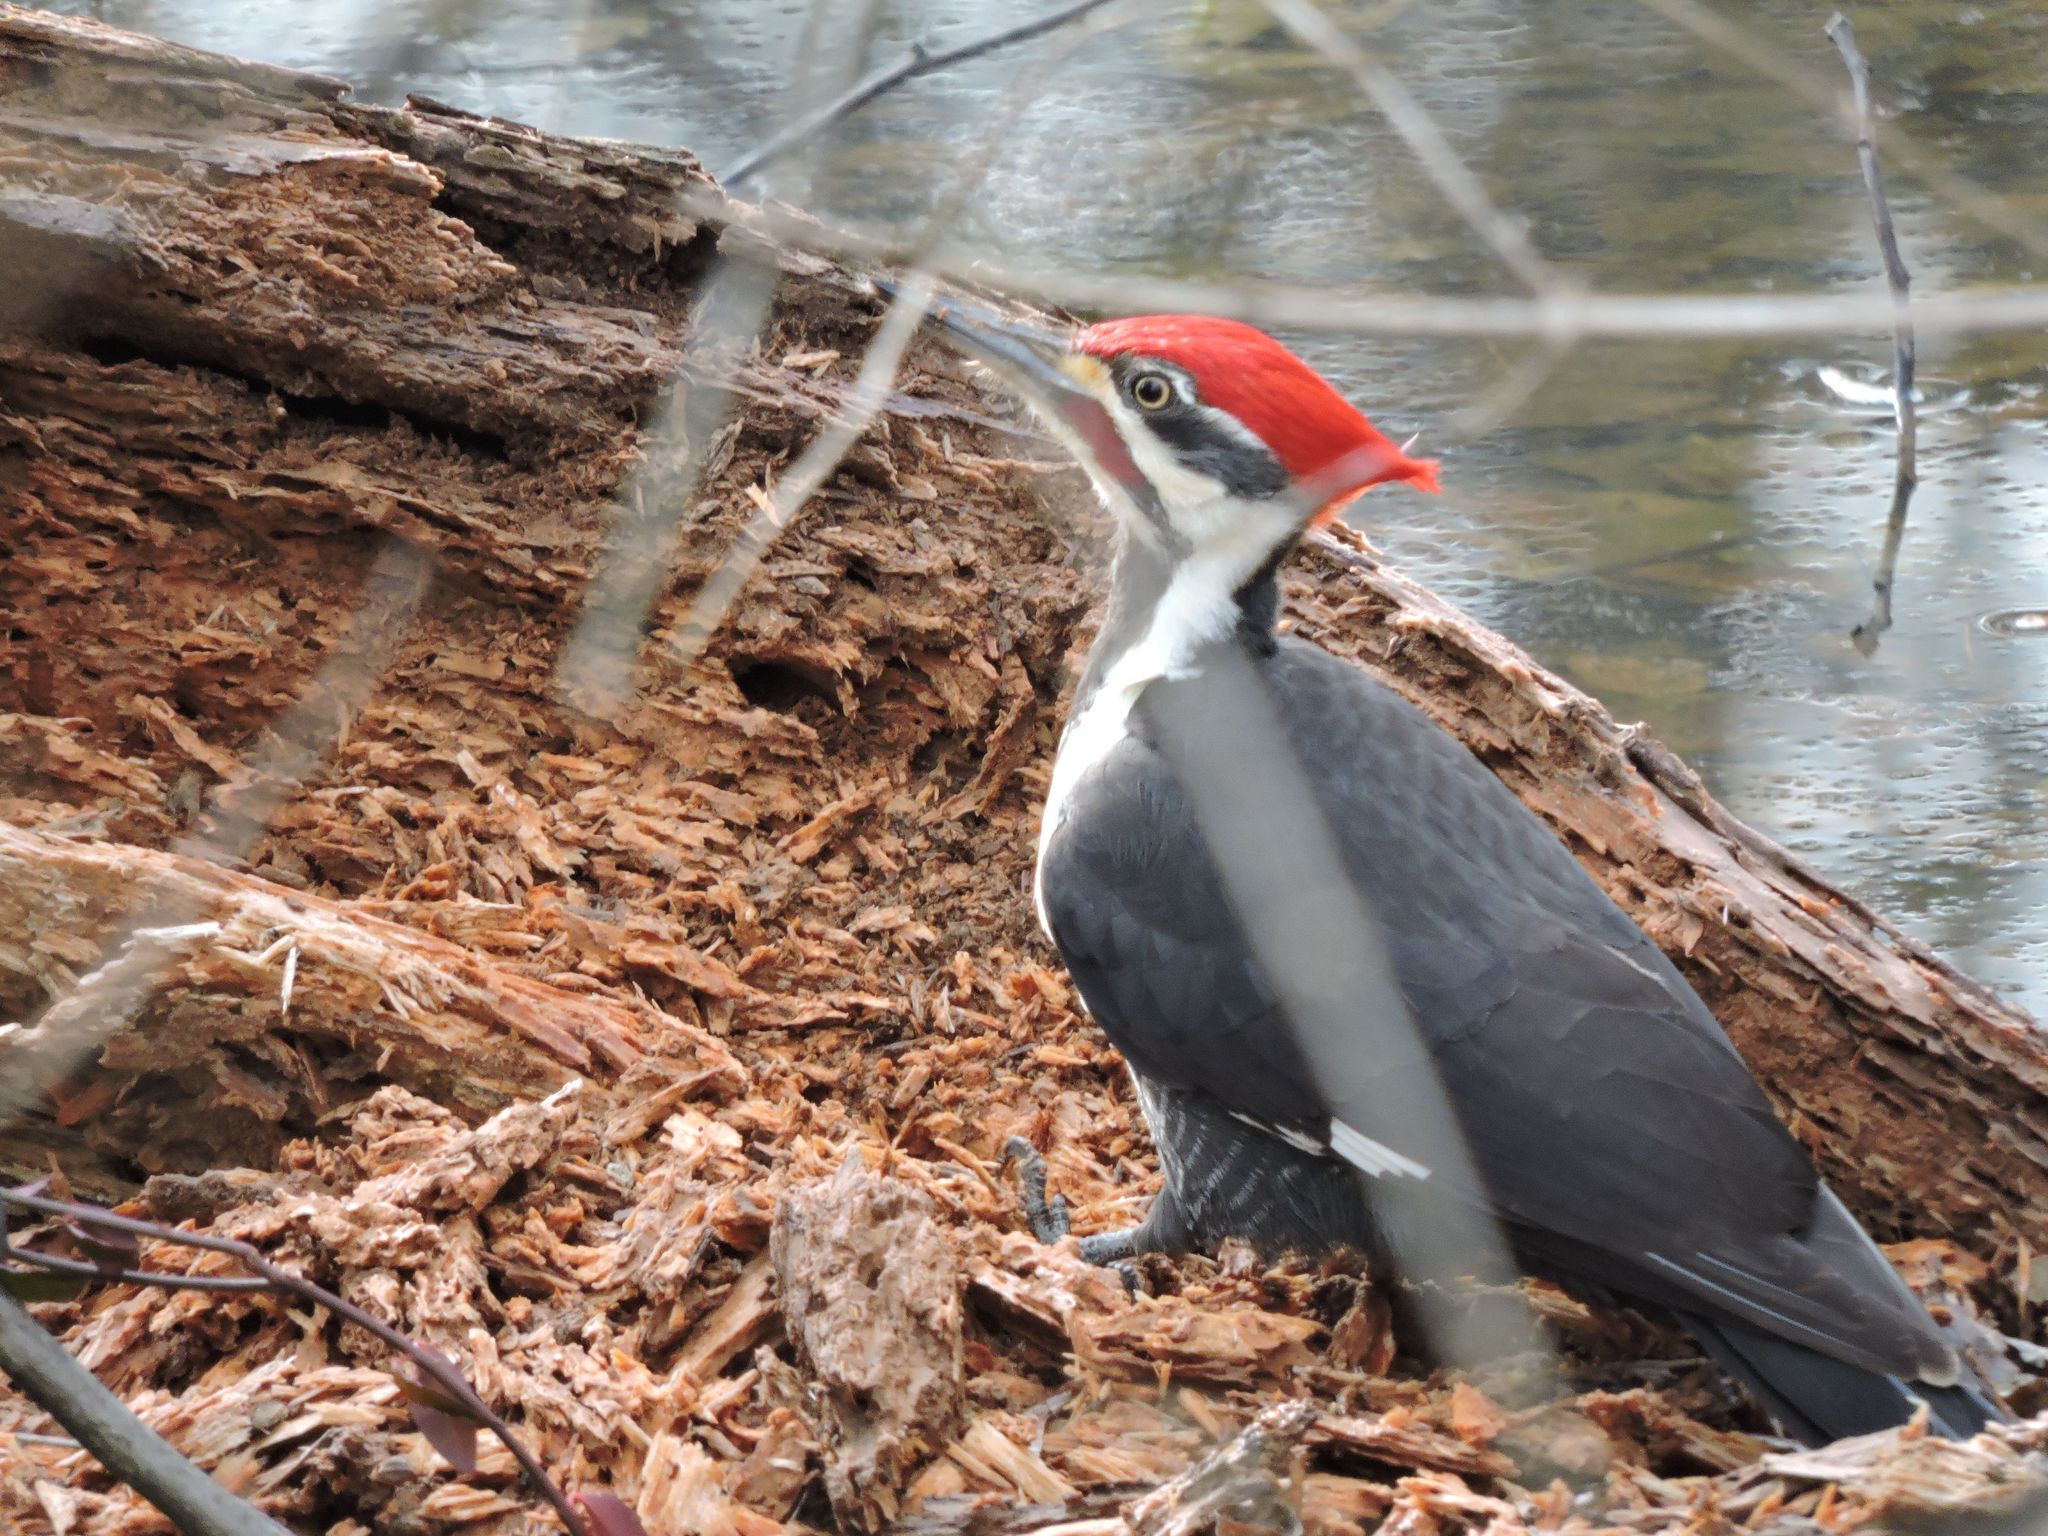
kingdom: Animalia
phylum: Chordata
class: Aves
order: Piciformes
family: Picidae
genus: Dryocopus
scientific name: Dryocopus pileatus
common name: Pileated woodpecker
